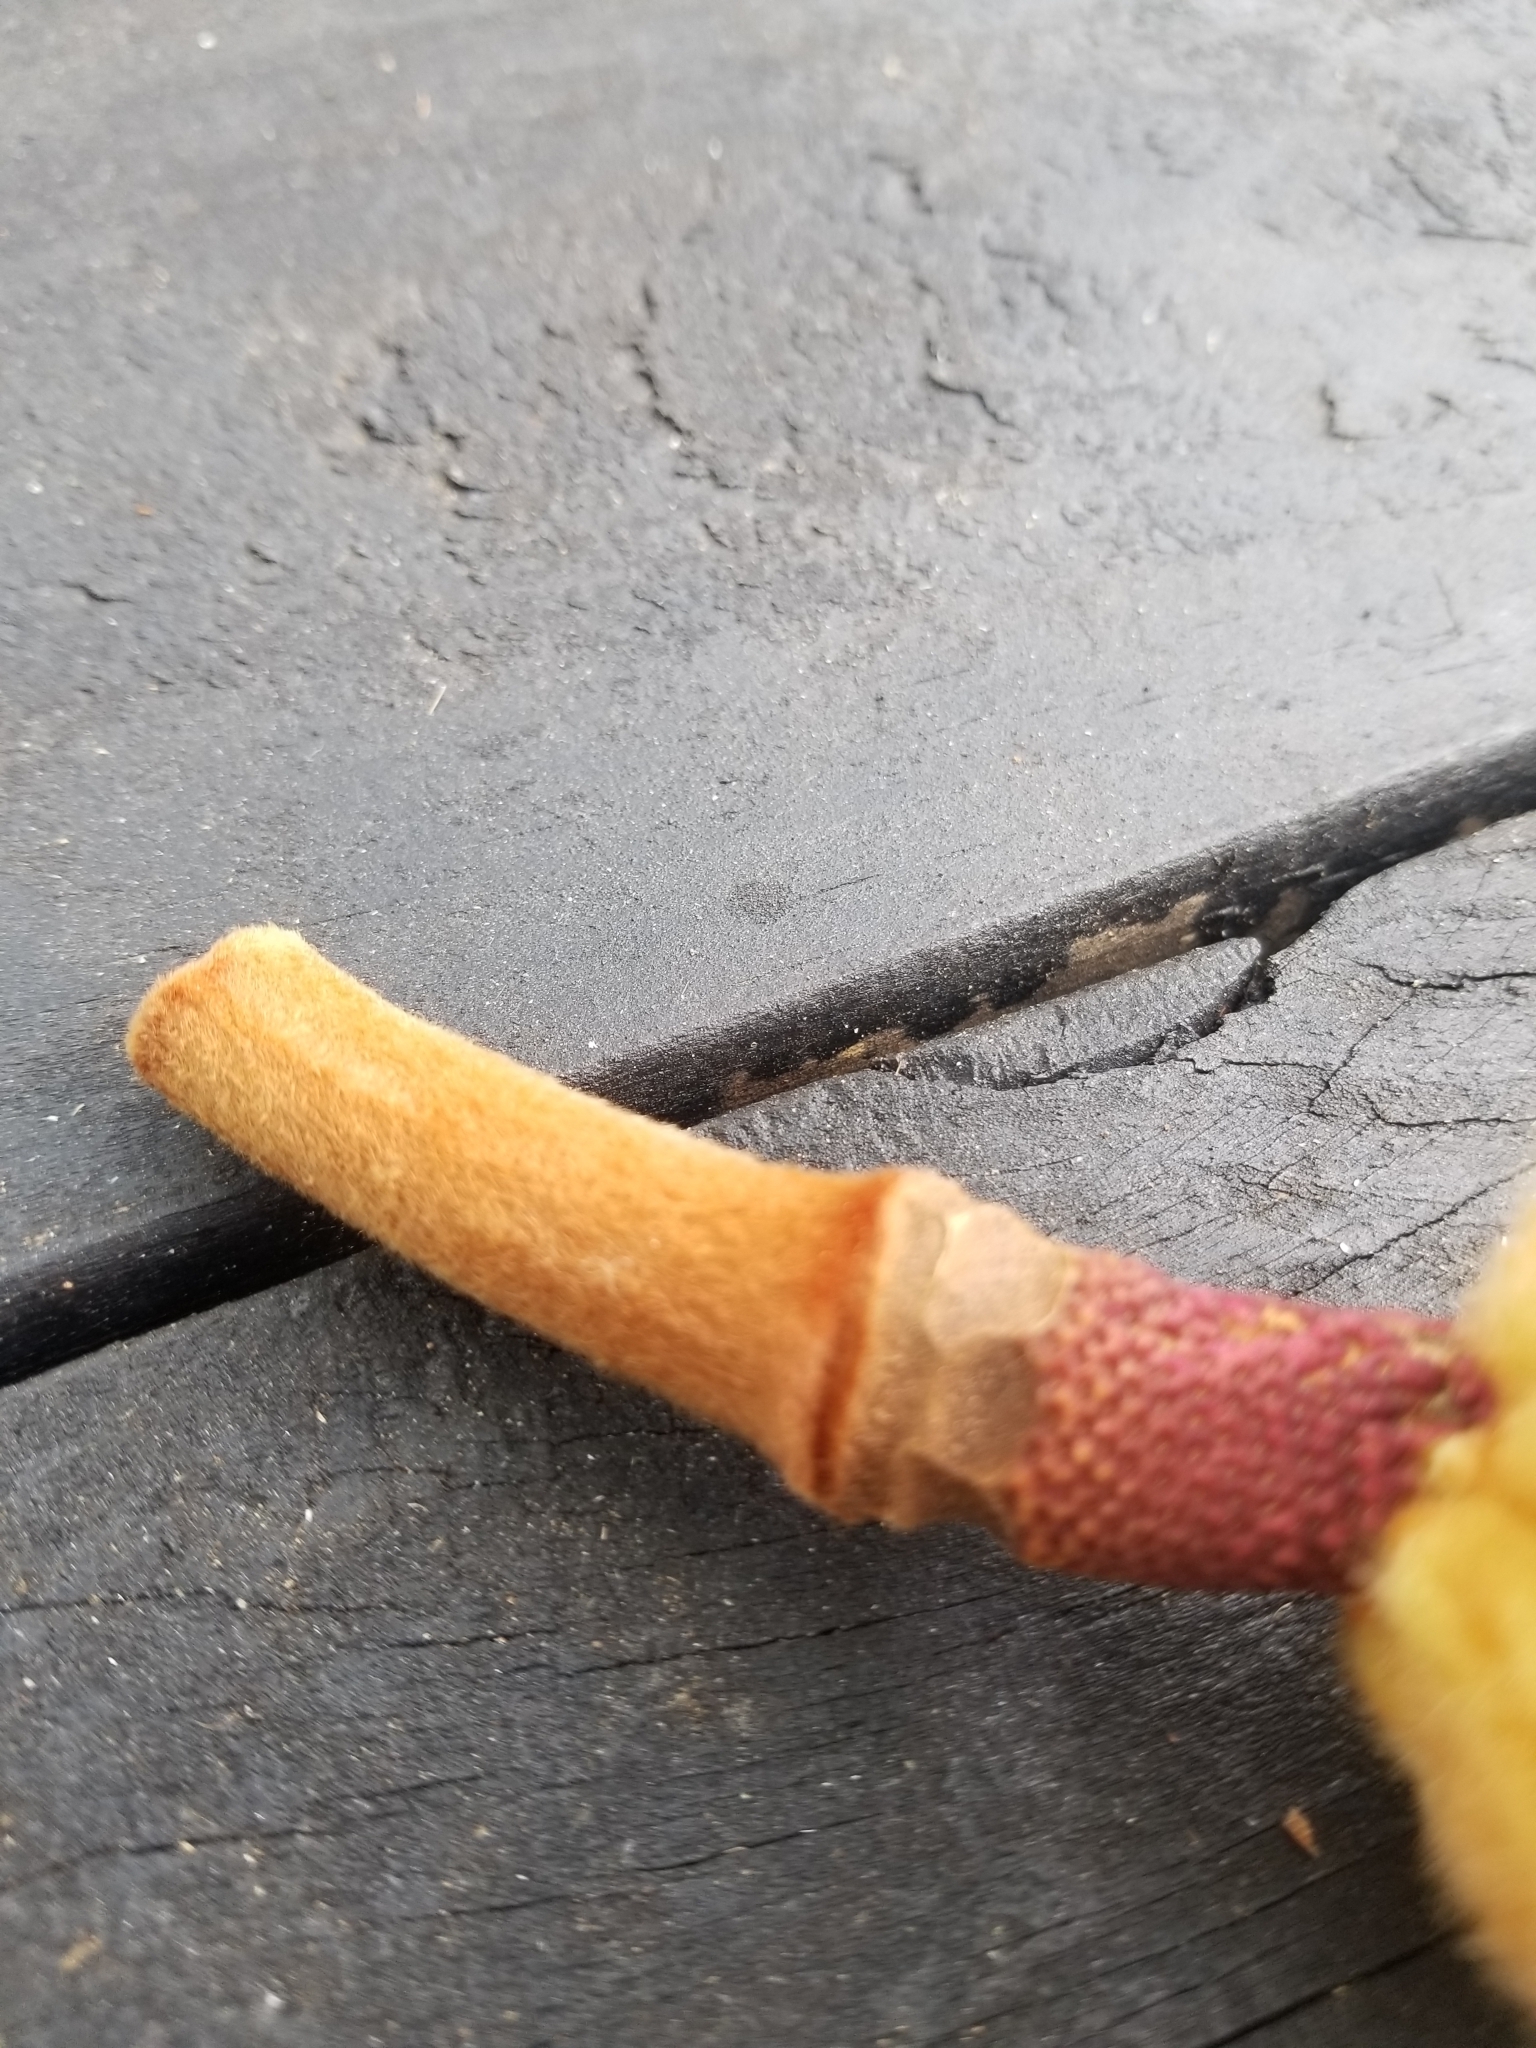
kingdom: Plantae
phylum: Tracheophyta
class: Magnoliopsida
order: Magnoliales
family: Magnoliaceae
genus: Magnolia
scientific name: Magnolia grandiflora
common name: Southern magnolia
